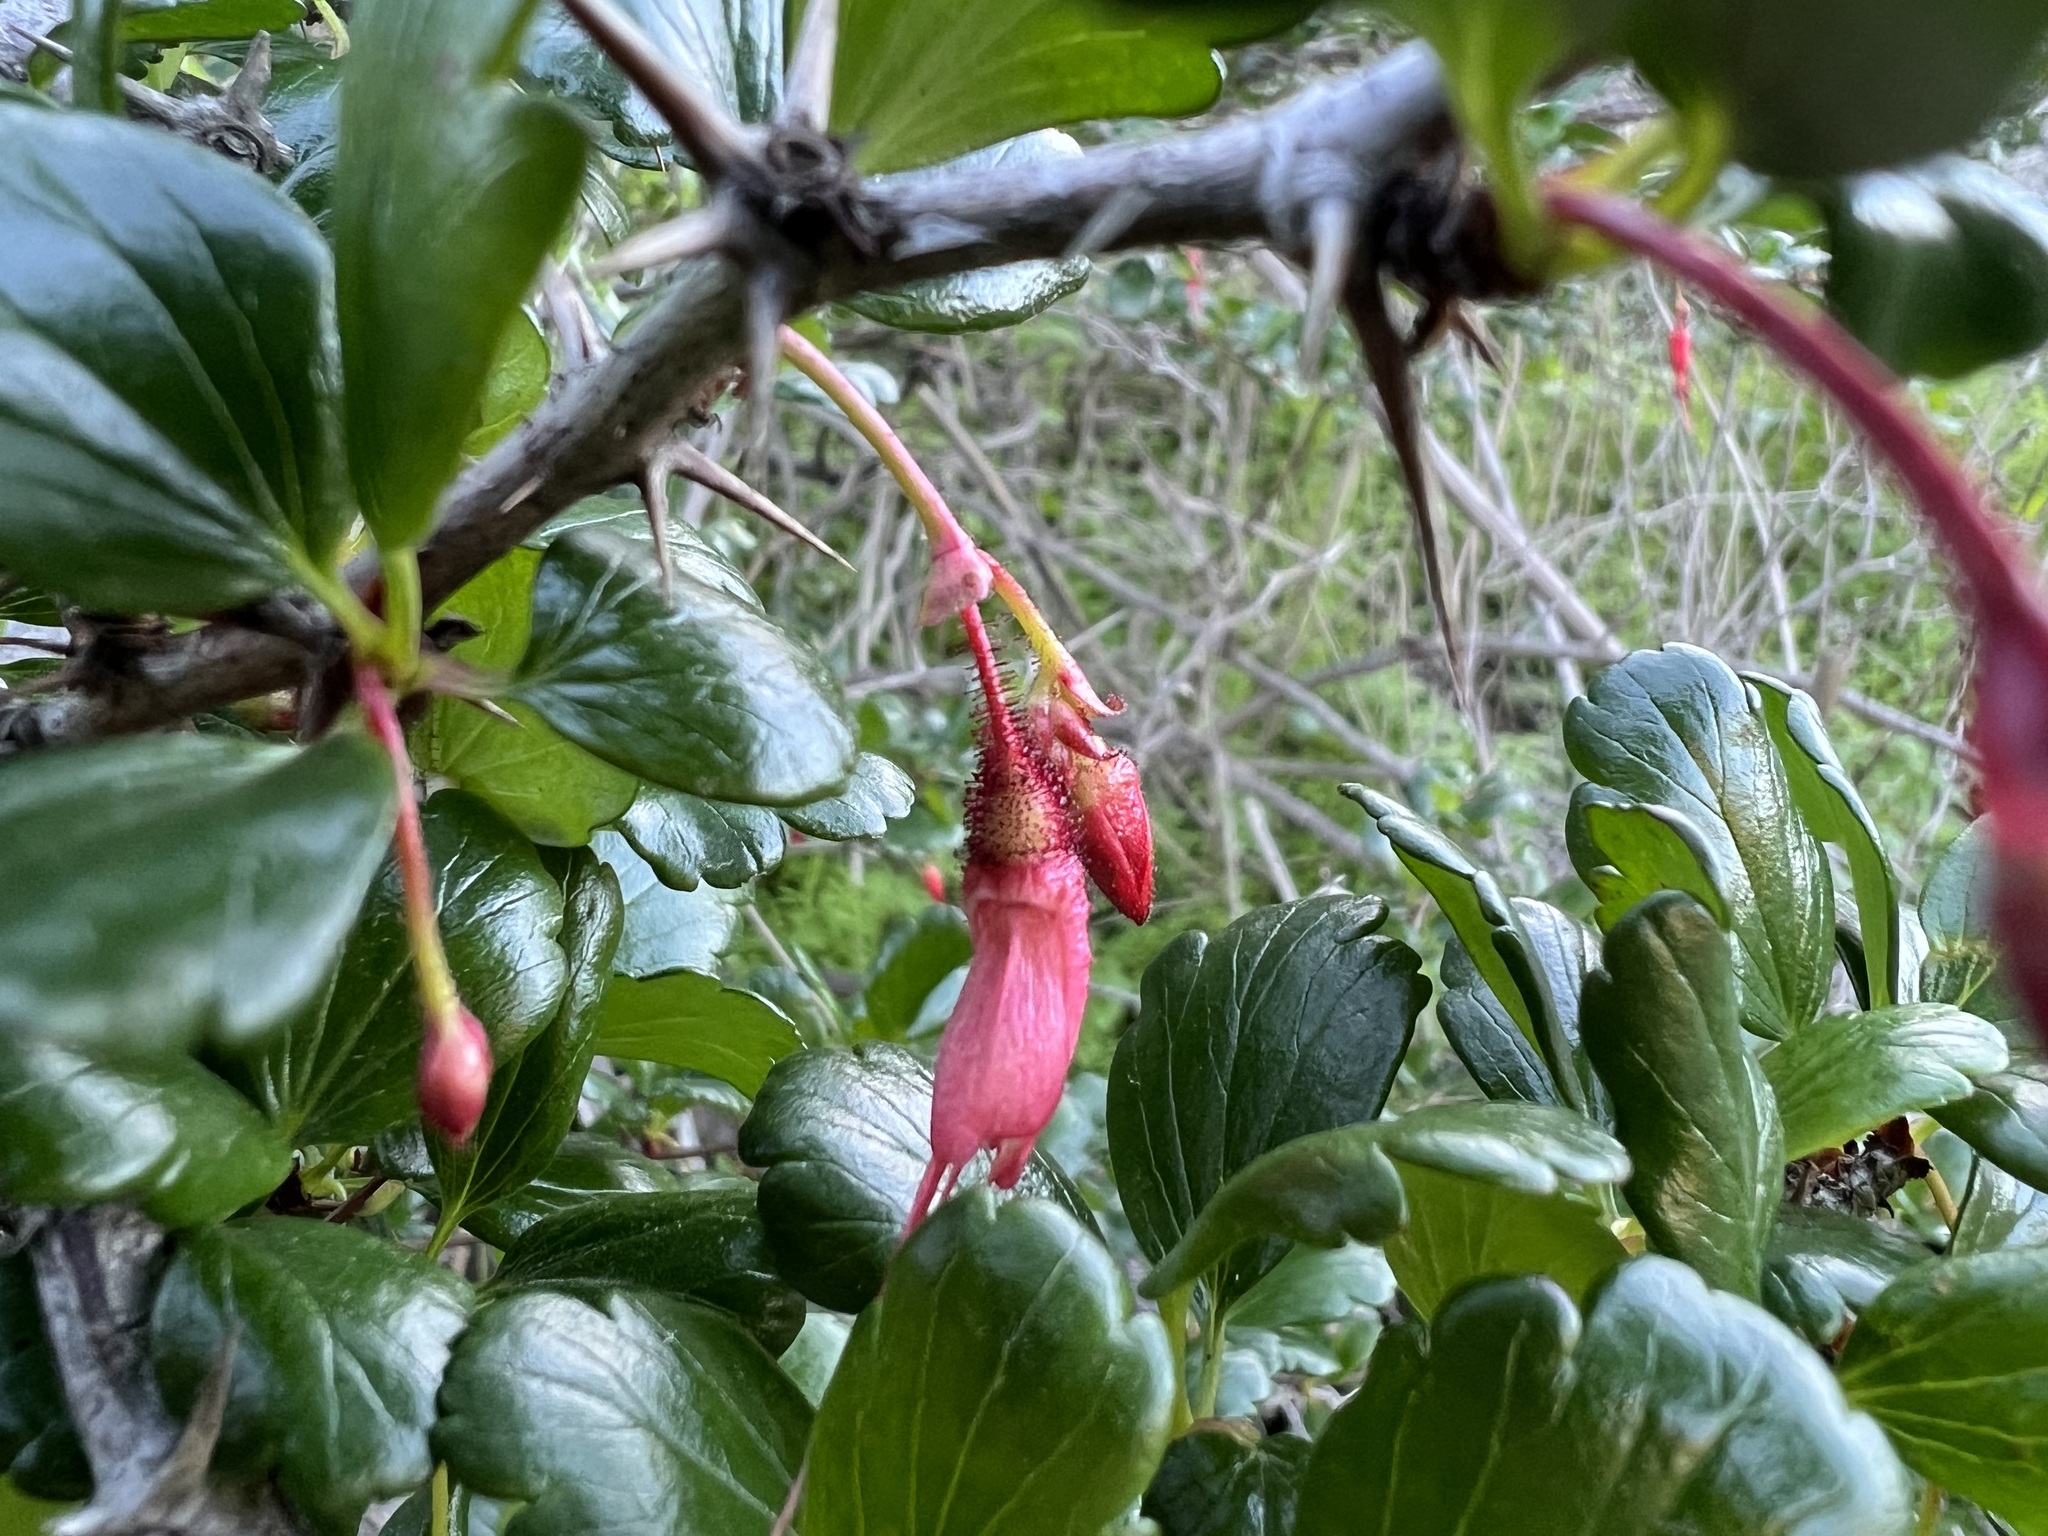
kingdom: Plantae
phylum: Tracheophyta
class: Magnoliopsida
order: Saxifragales
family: Grossulariaceae
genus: Ribes
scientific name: Ribes speciosum
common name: Fuchsia-flower gooseberry
